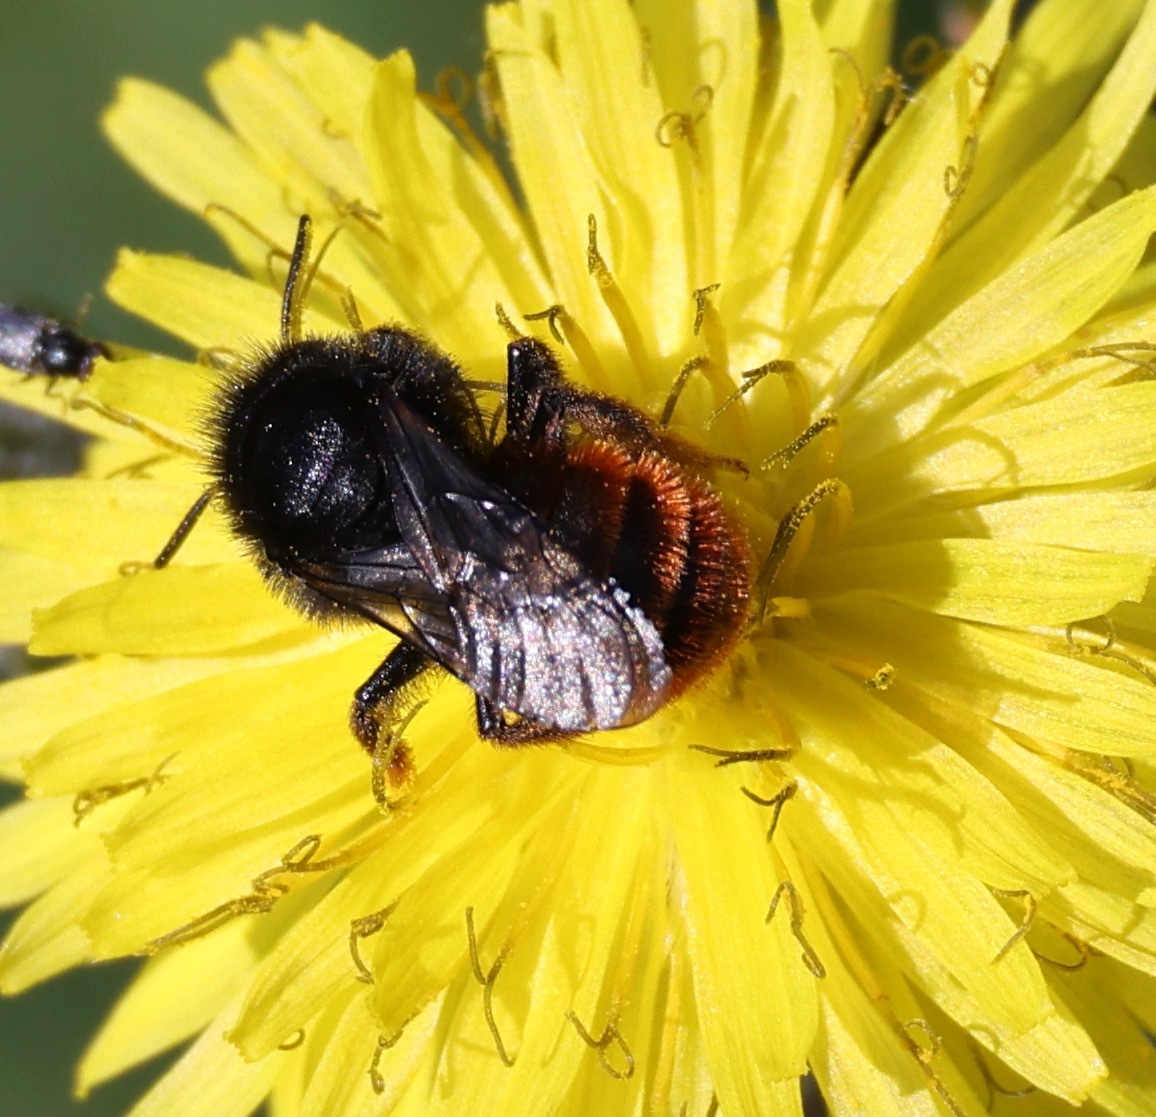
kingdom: Animalia
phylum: Arthropoda
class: Insecta
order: Hymenoptera
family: Megachilidae
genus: Osmia
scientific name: Osmia bicolor
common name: Red-tailed mason bee
